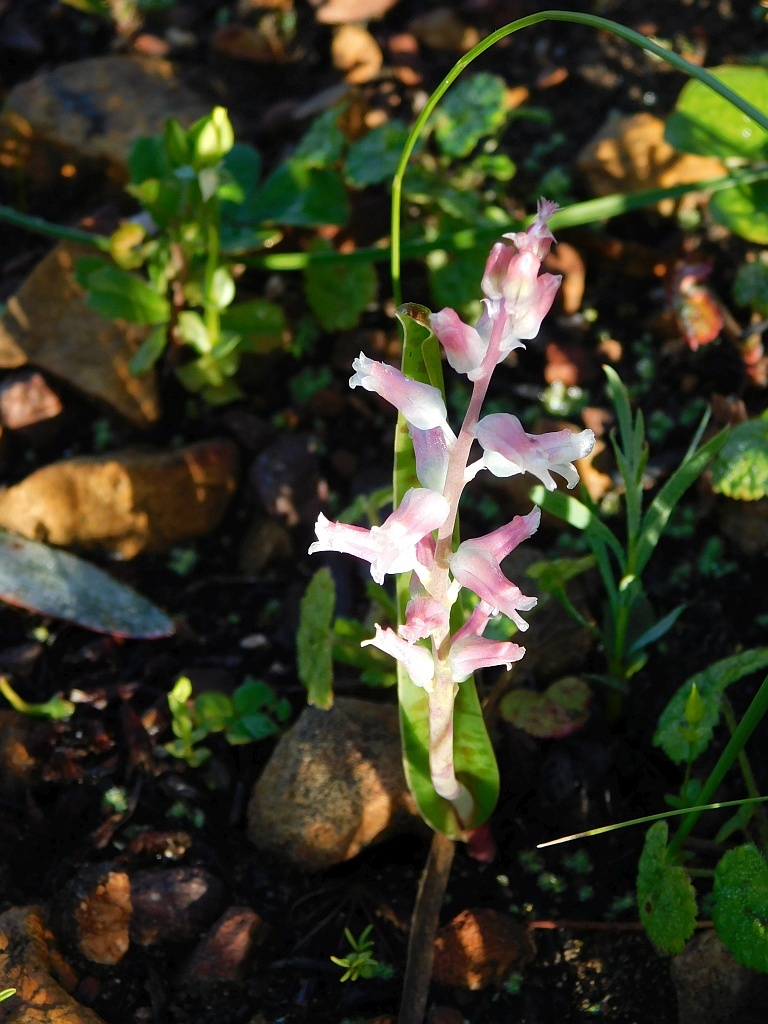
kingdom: Plantae
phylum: Tracheophyta
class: Liliopsida
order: Asparagales
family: Asparagaceae
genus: Lachenalia
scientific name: Lachenalia rosea
